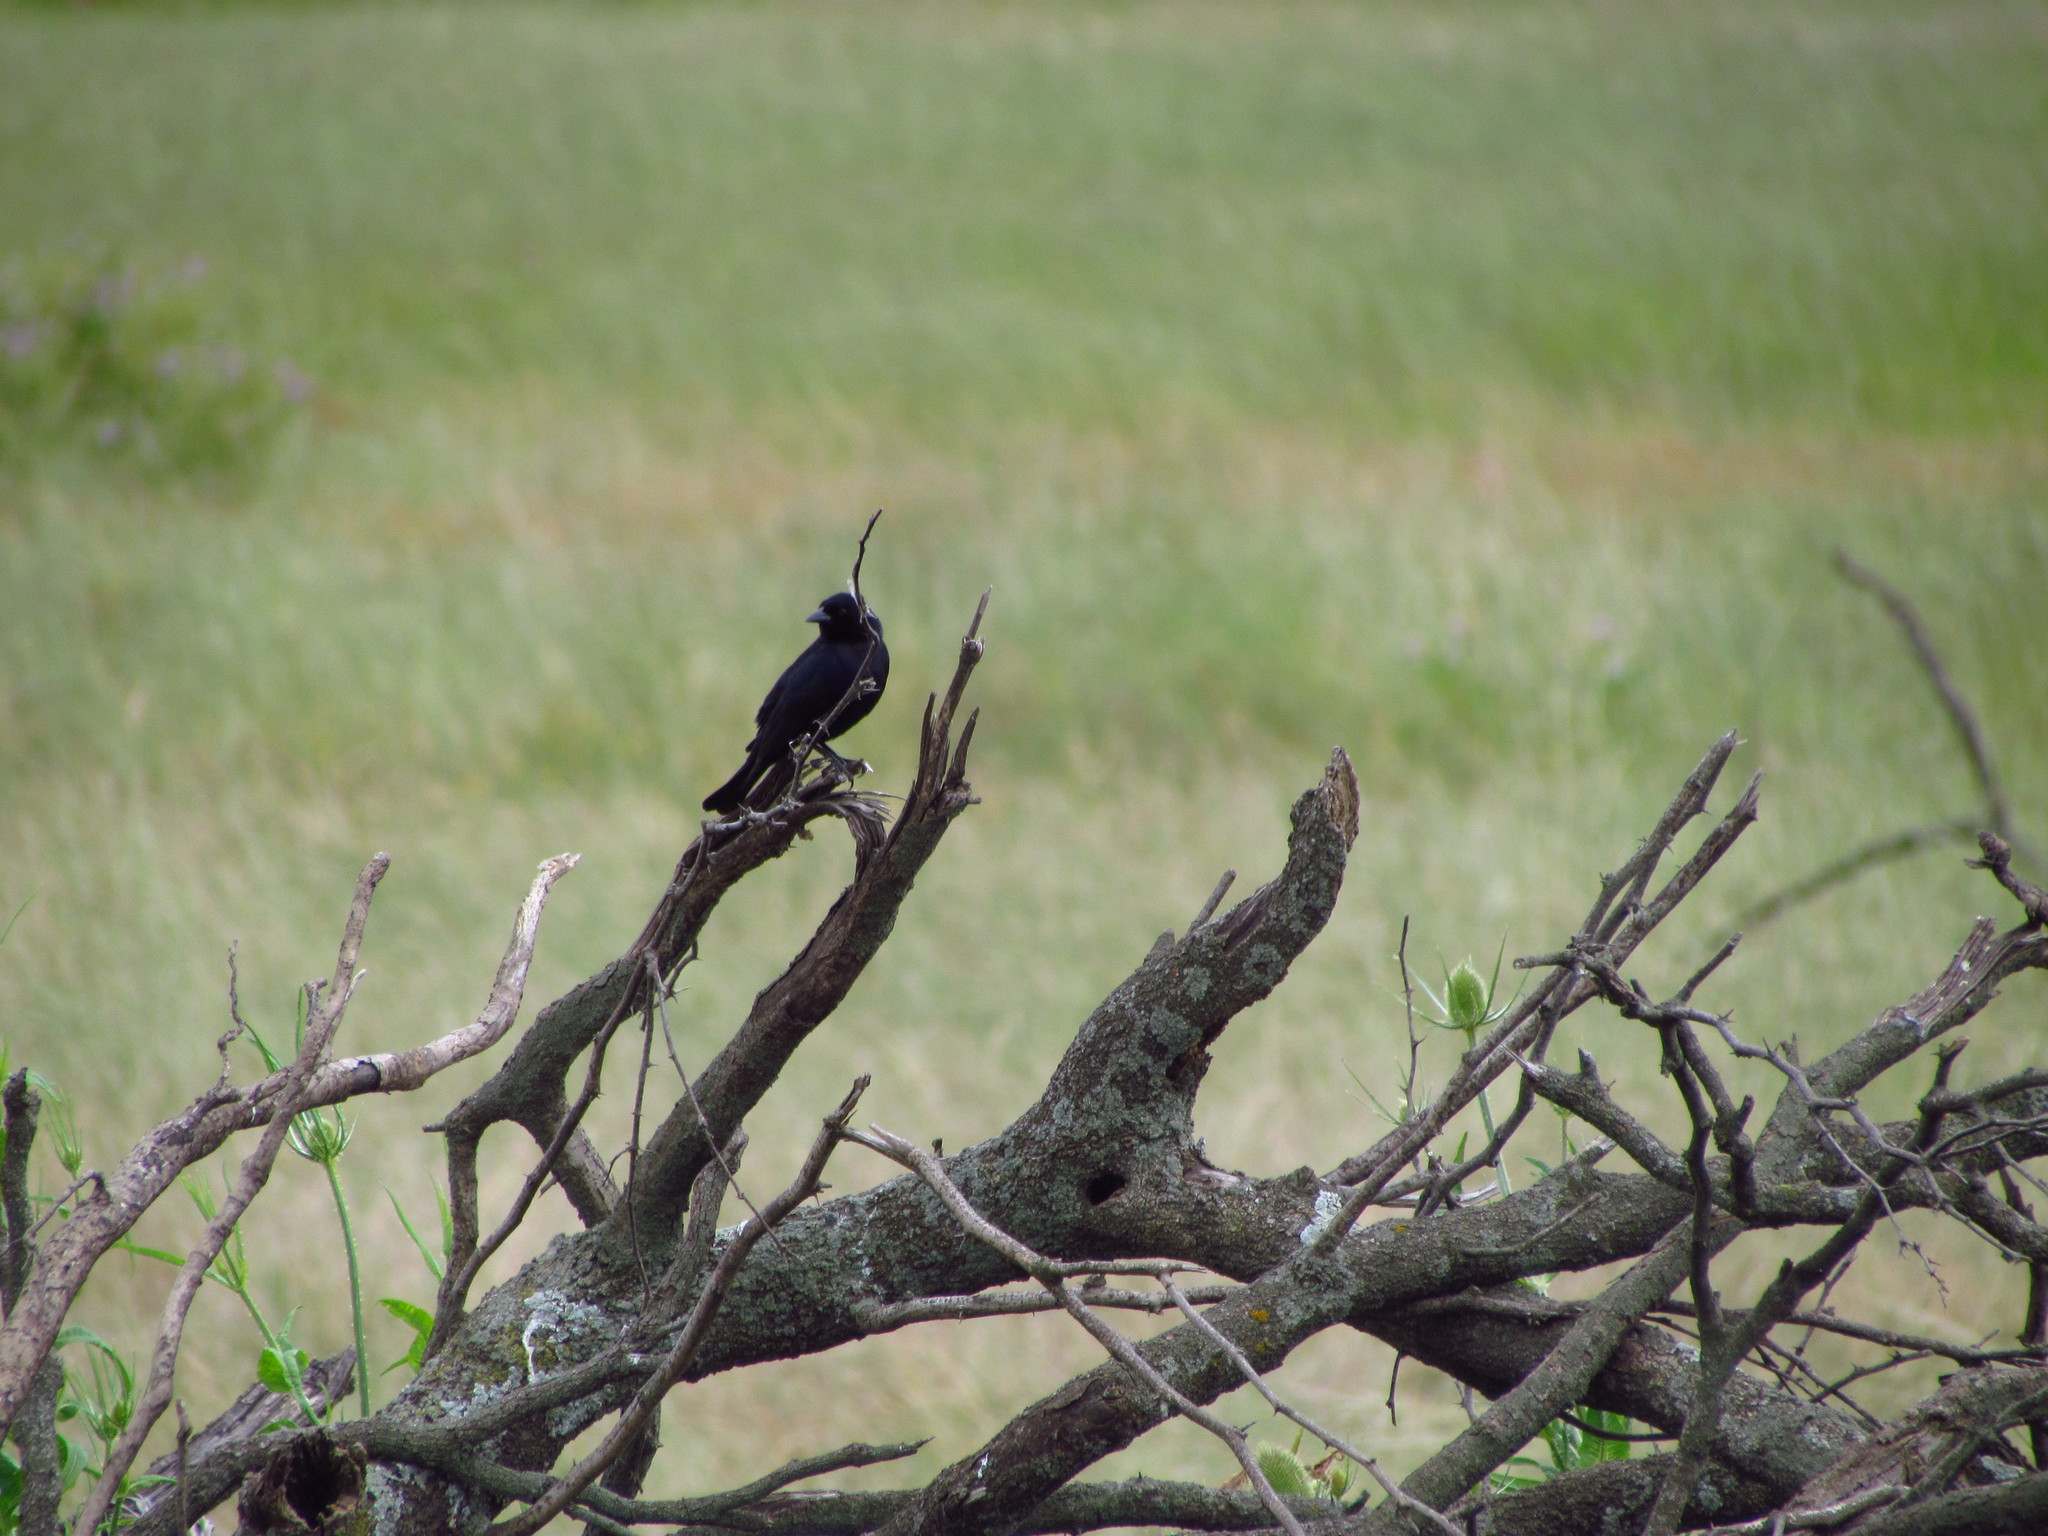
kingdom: Animalia
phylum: Chordata
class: Aves
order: Passeriformes
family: Icteridae
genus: Molothrus
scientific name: Molothrus bonariensis
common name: Shiny cowbird
